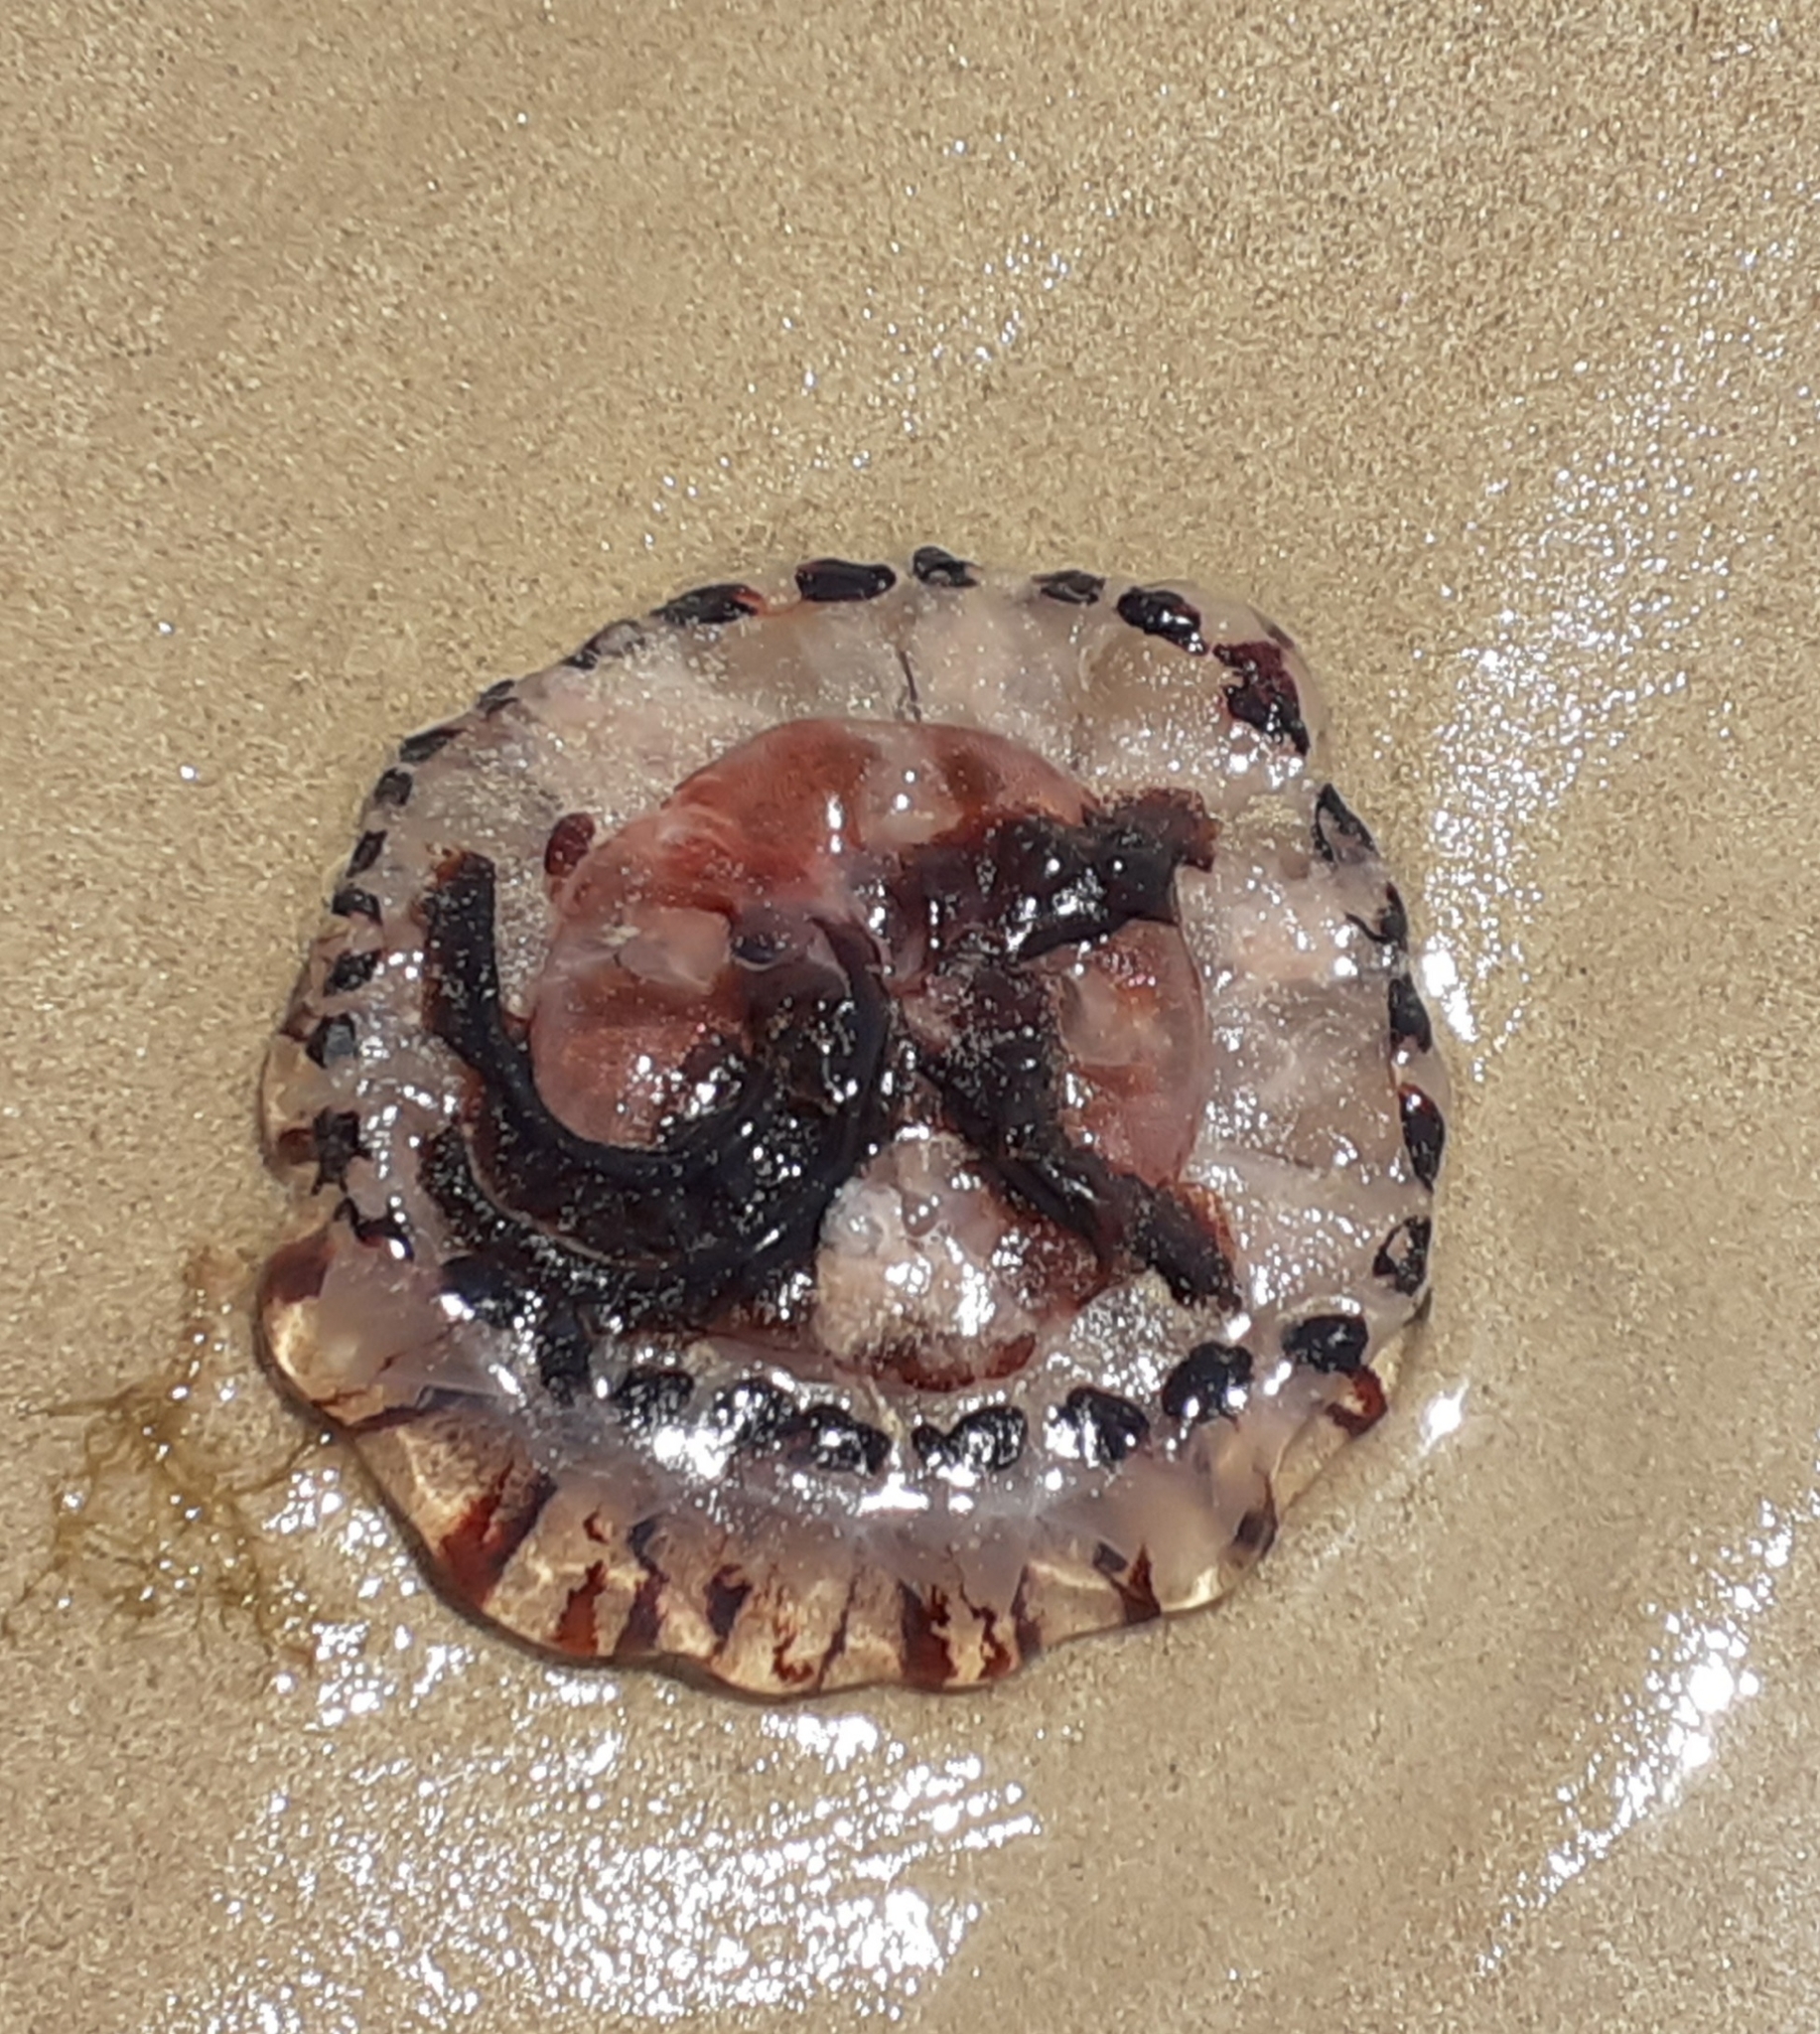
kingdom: Animalia
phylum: Cnidaria
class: Scyphozoa
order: Semaeostomeae
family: Pelagiidae
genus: Chrysaora
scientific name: Chrysaora hysoscella
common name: Compass jellyfish
